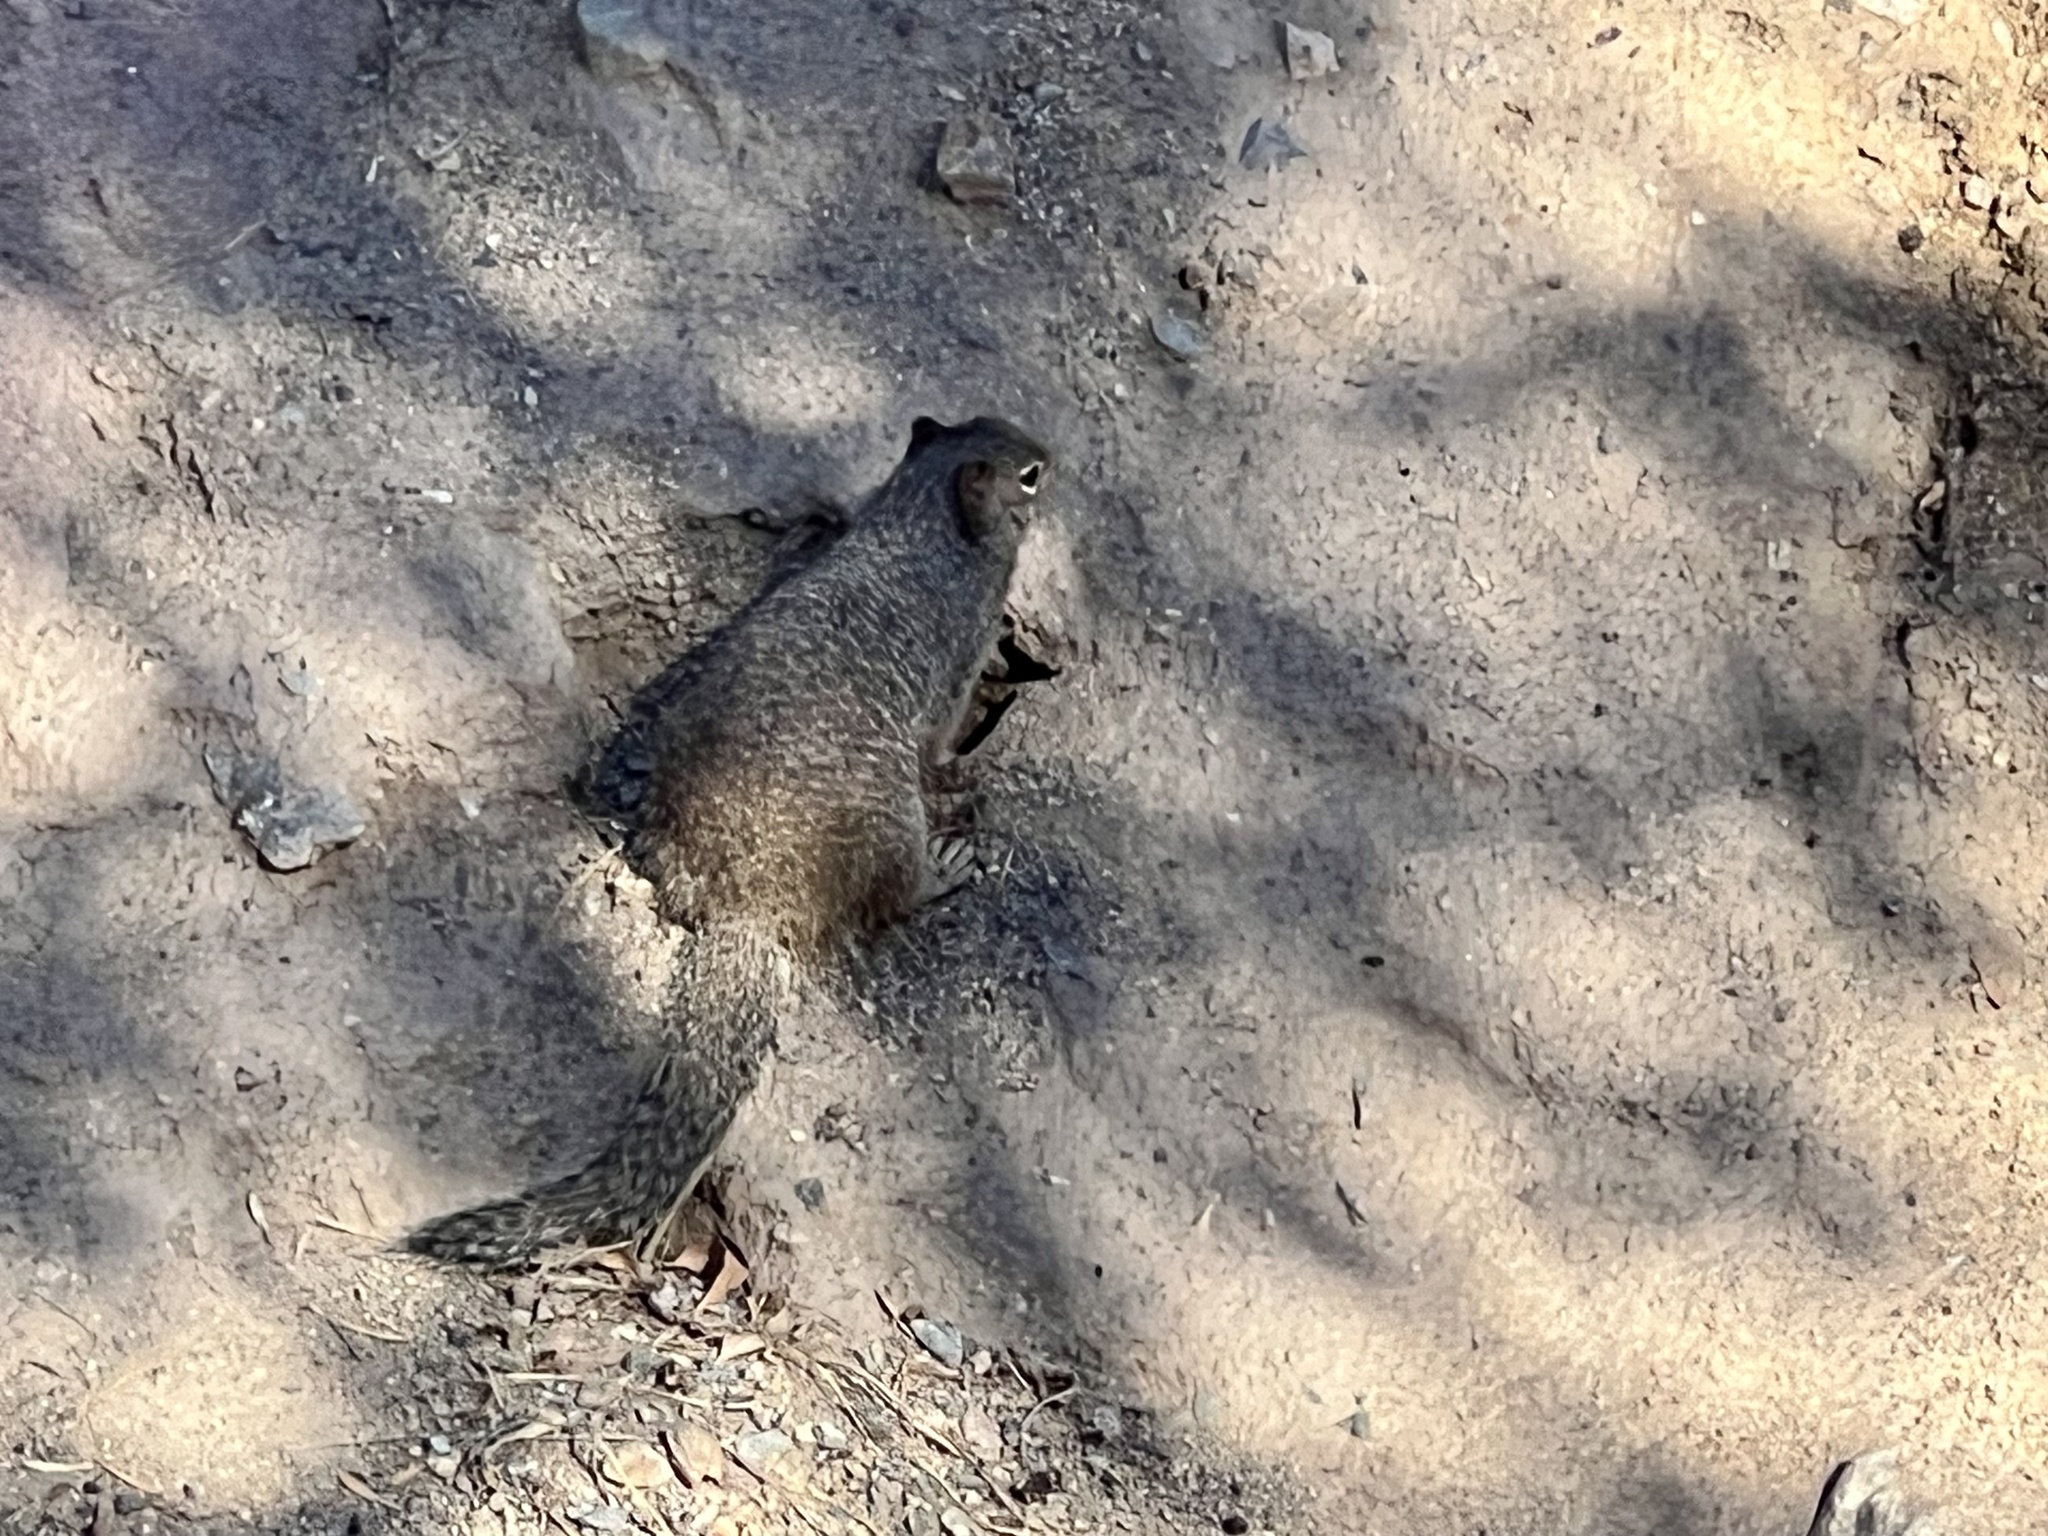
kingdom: Animalia
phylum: Chordata
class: Mammalia
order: Rodentia
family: Sciuridae
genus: Otospermophilus
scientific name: Otospermophilus variegatus
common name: Rock squirrel
